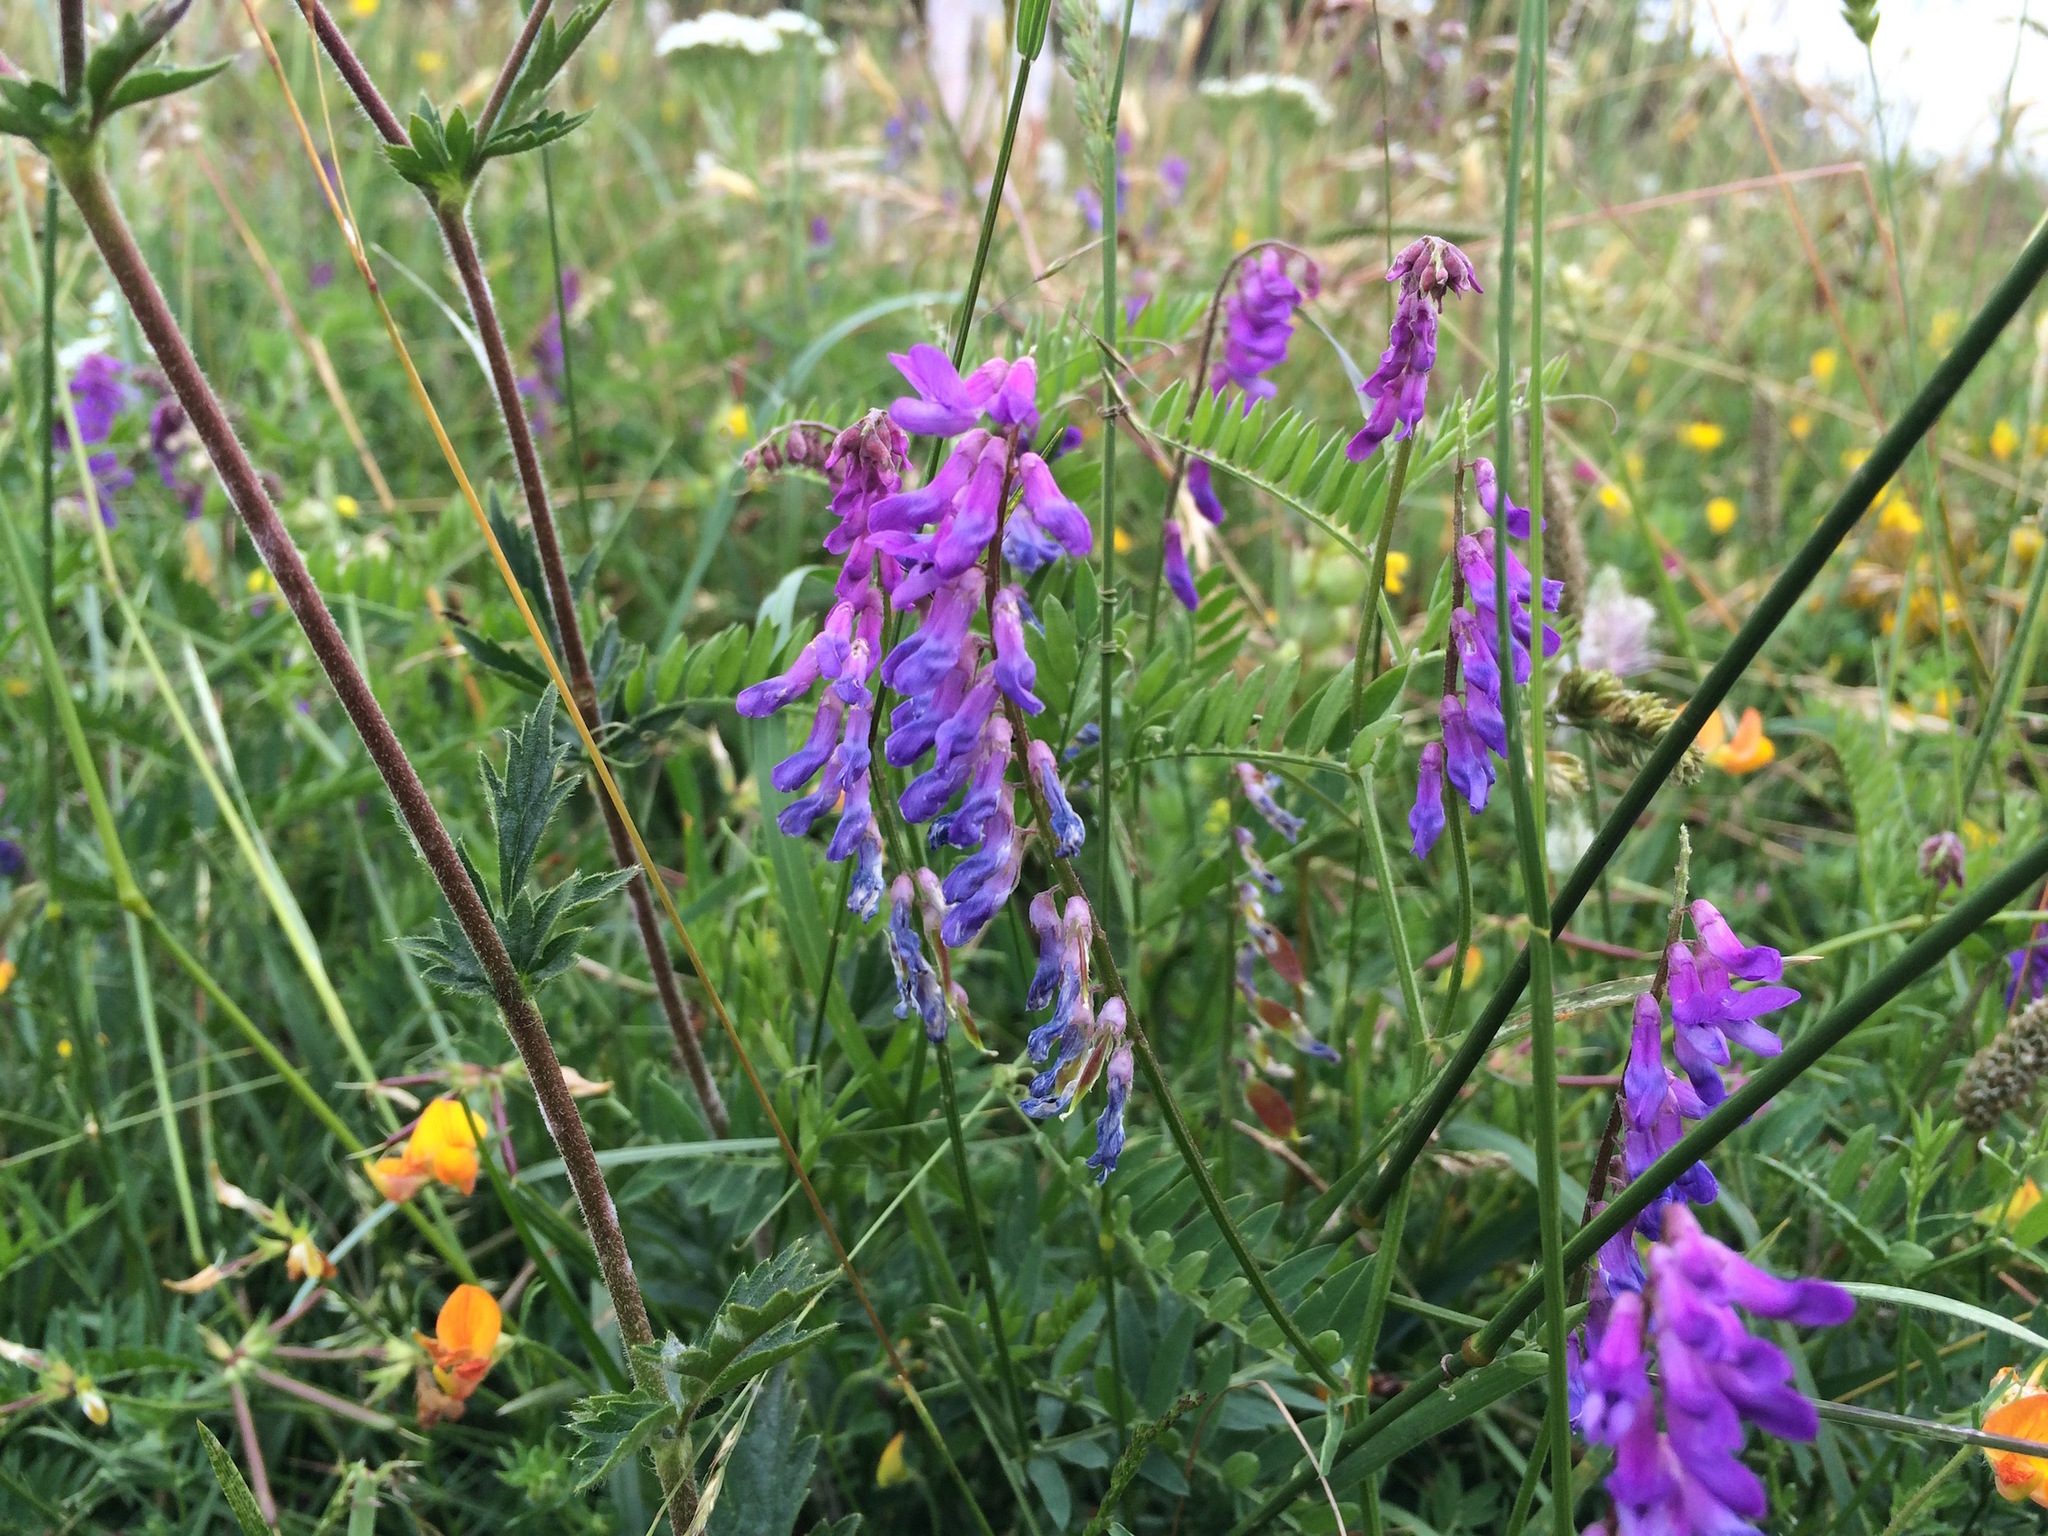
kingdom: Plantae
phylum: Tracheophyta
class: Magnoliopsida
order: Fabales
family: Fabaceae
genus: Vicia
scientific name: Vicia cracca
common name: Bird vetch
